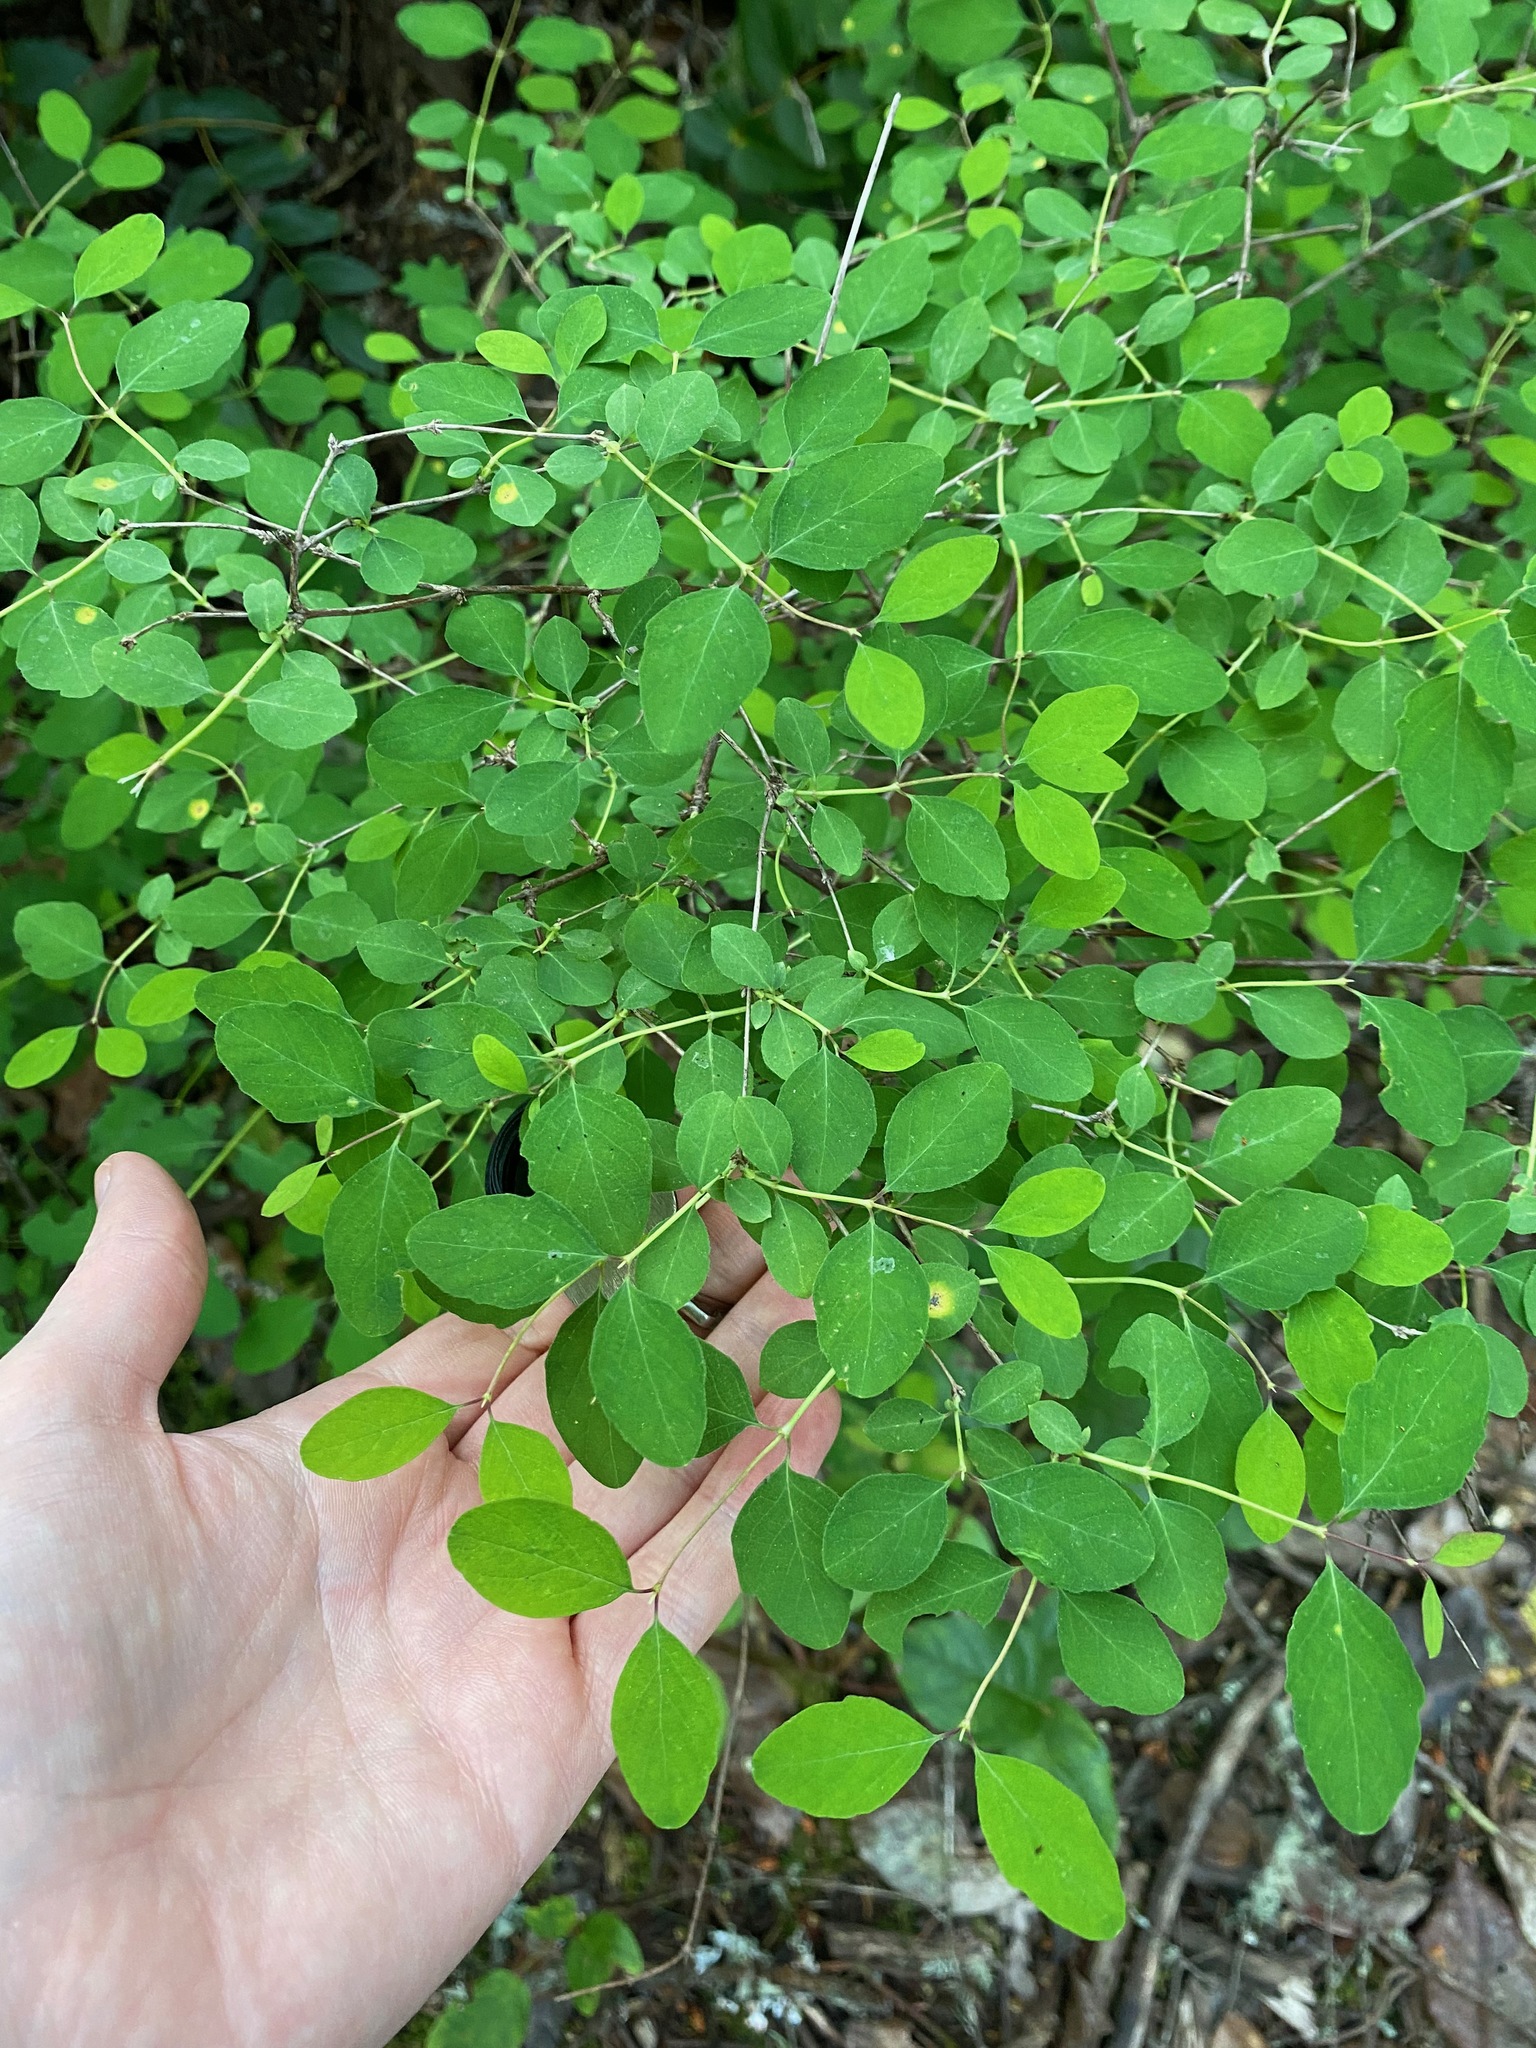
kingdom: Plantae
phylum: Tracheophyta
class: Magnoliopsida
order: Dipsacales
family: Caprifoliaceae
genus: Symphoricarpos
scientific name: Symphoricarpos albus
